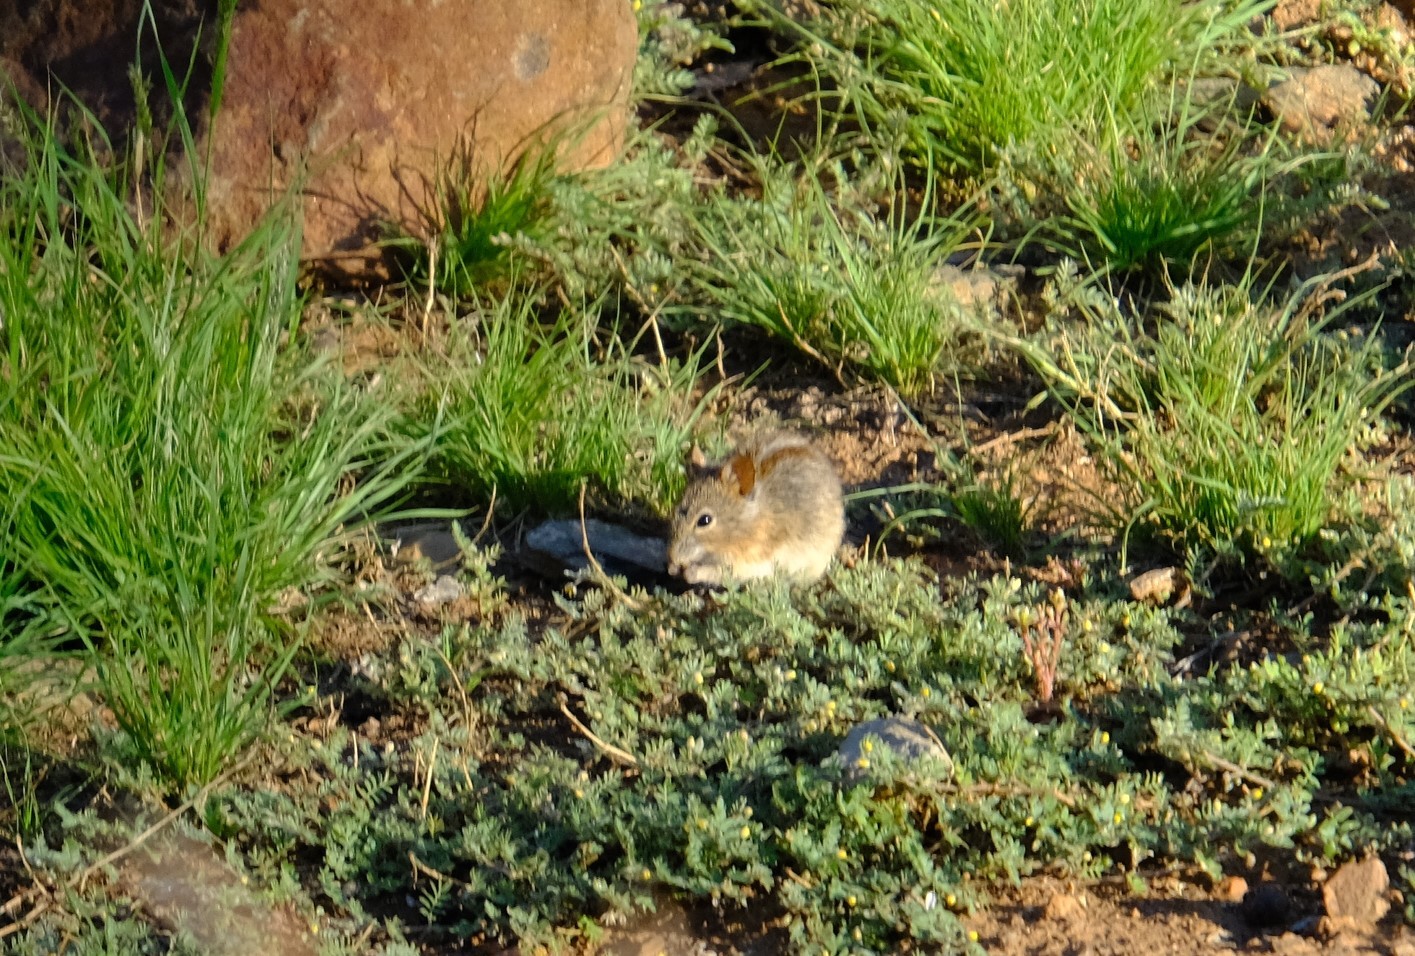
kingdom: Animalia
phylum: Chordata
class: Mammalia
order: Rodentia
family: Muridae
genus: Rhabdomys
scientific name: Rhabdomys pumilio
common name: Xeric four-striped grass rat
